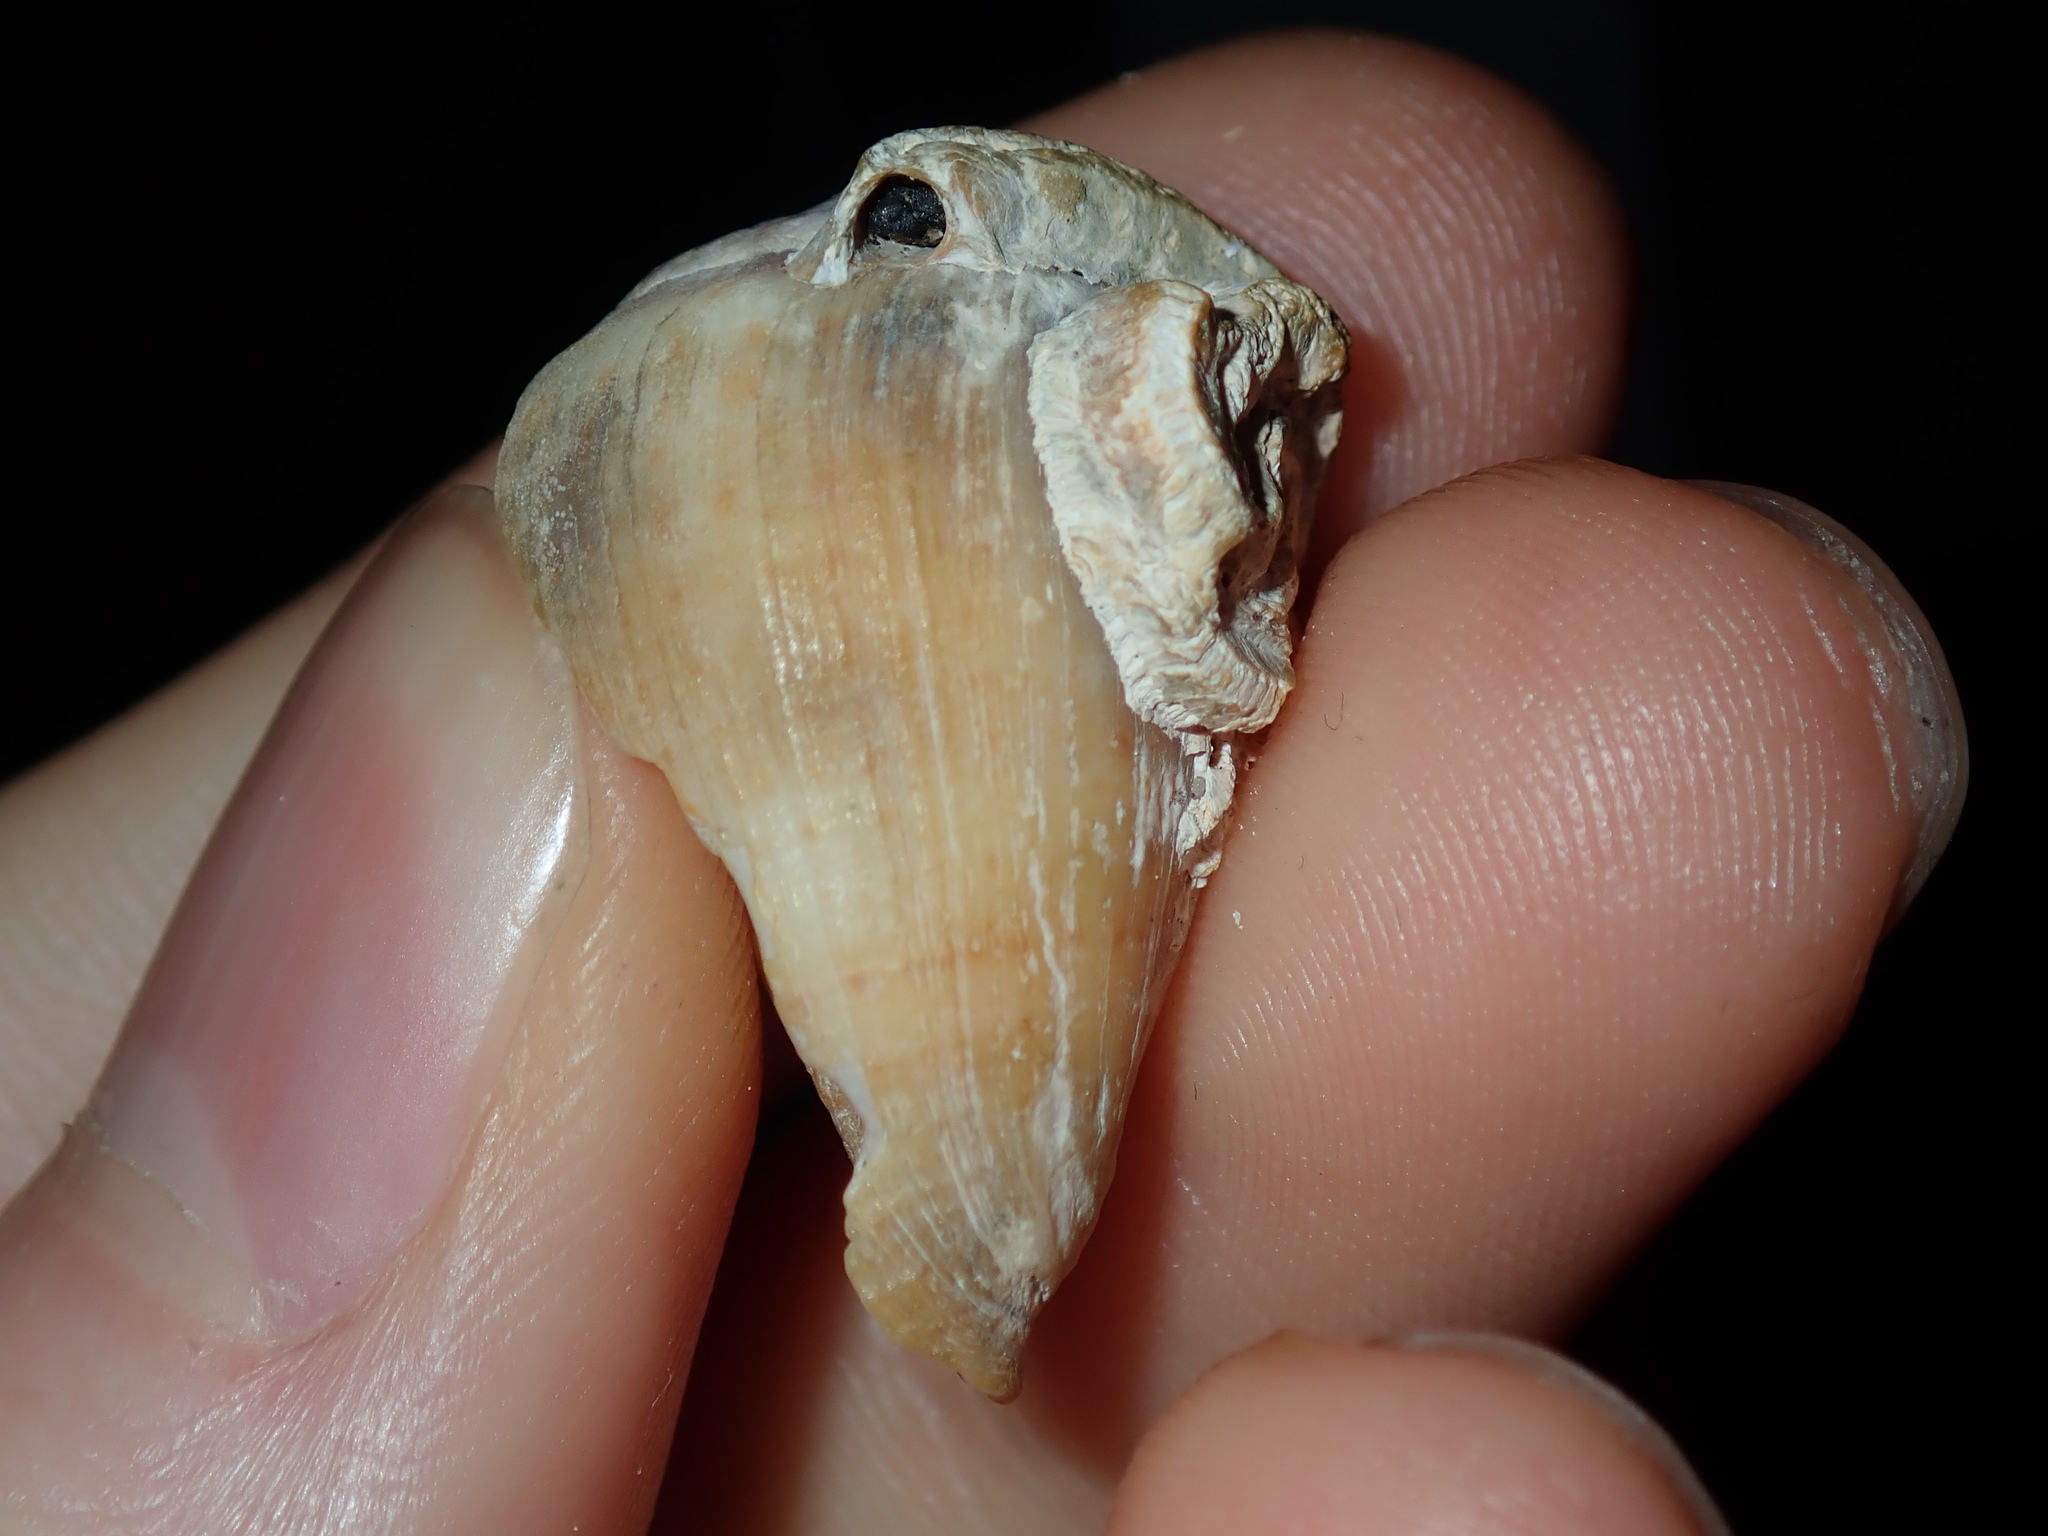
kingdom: Animalia
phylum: Mollusca
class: Gastropoda
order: Neogastropoda
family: Conidae
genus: Conus
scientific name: Conus aplustre
